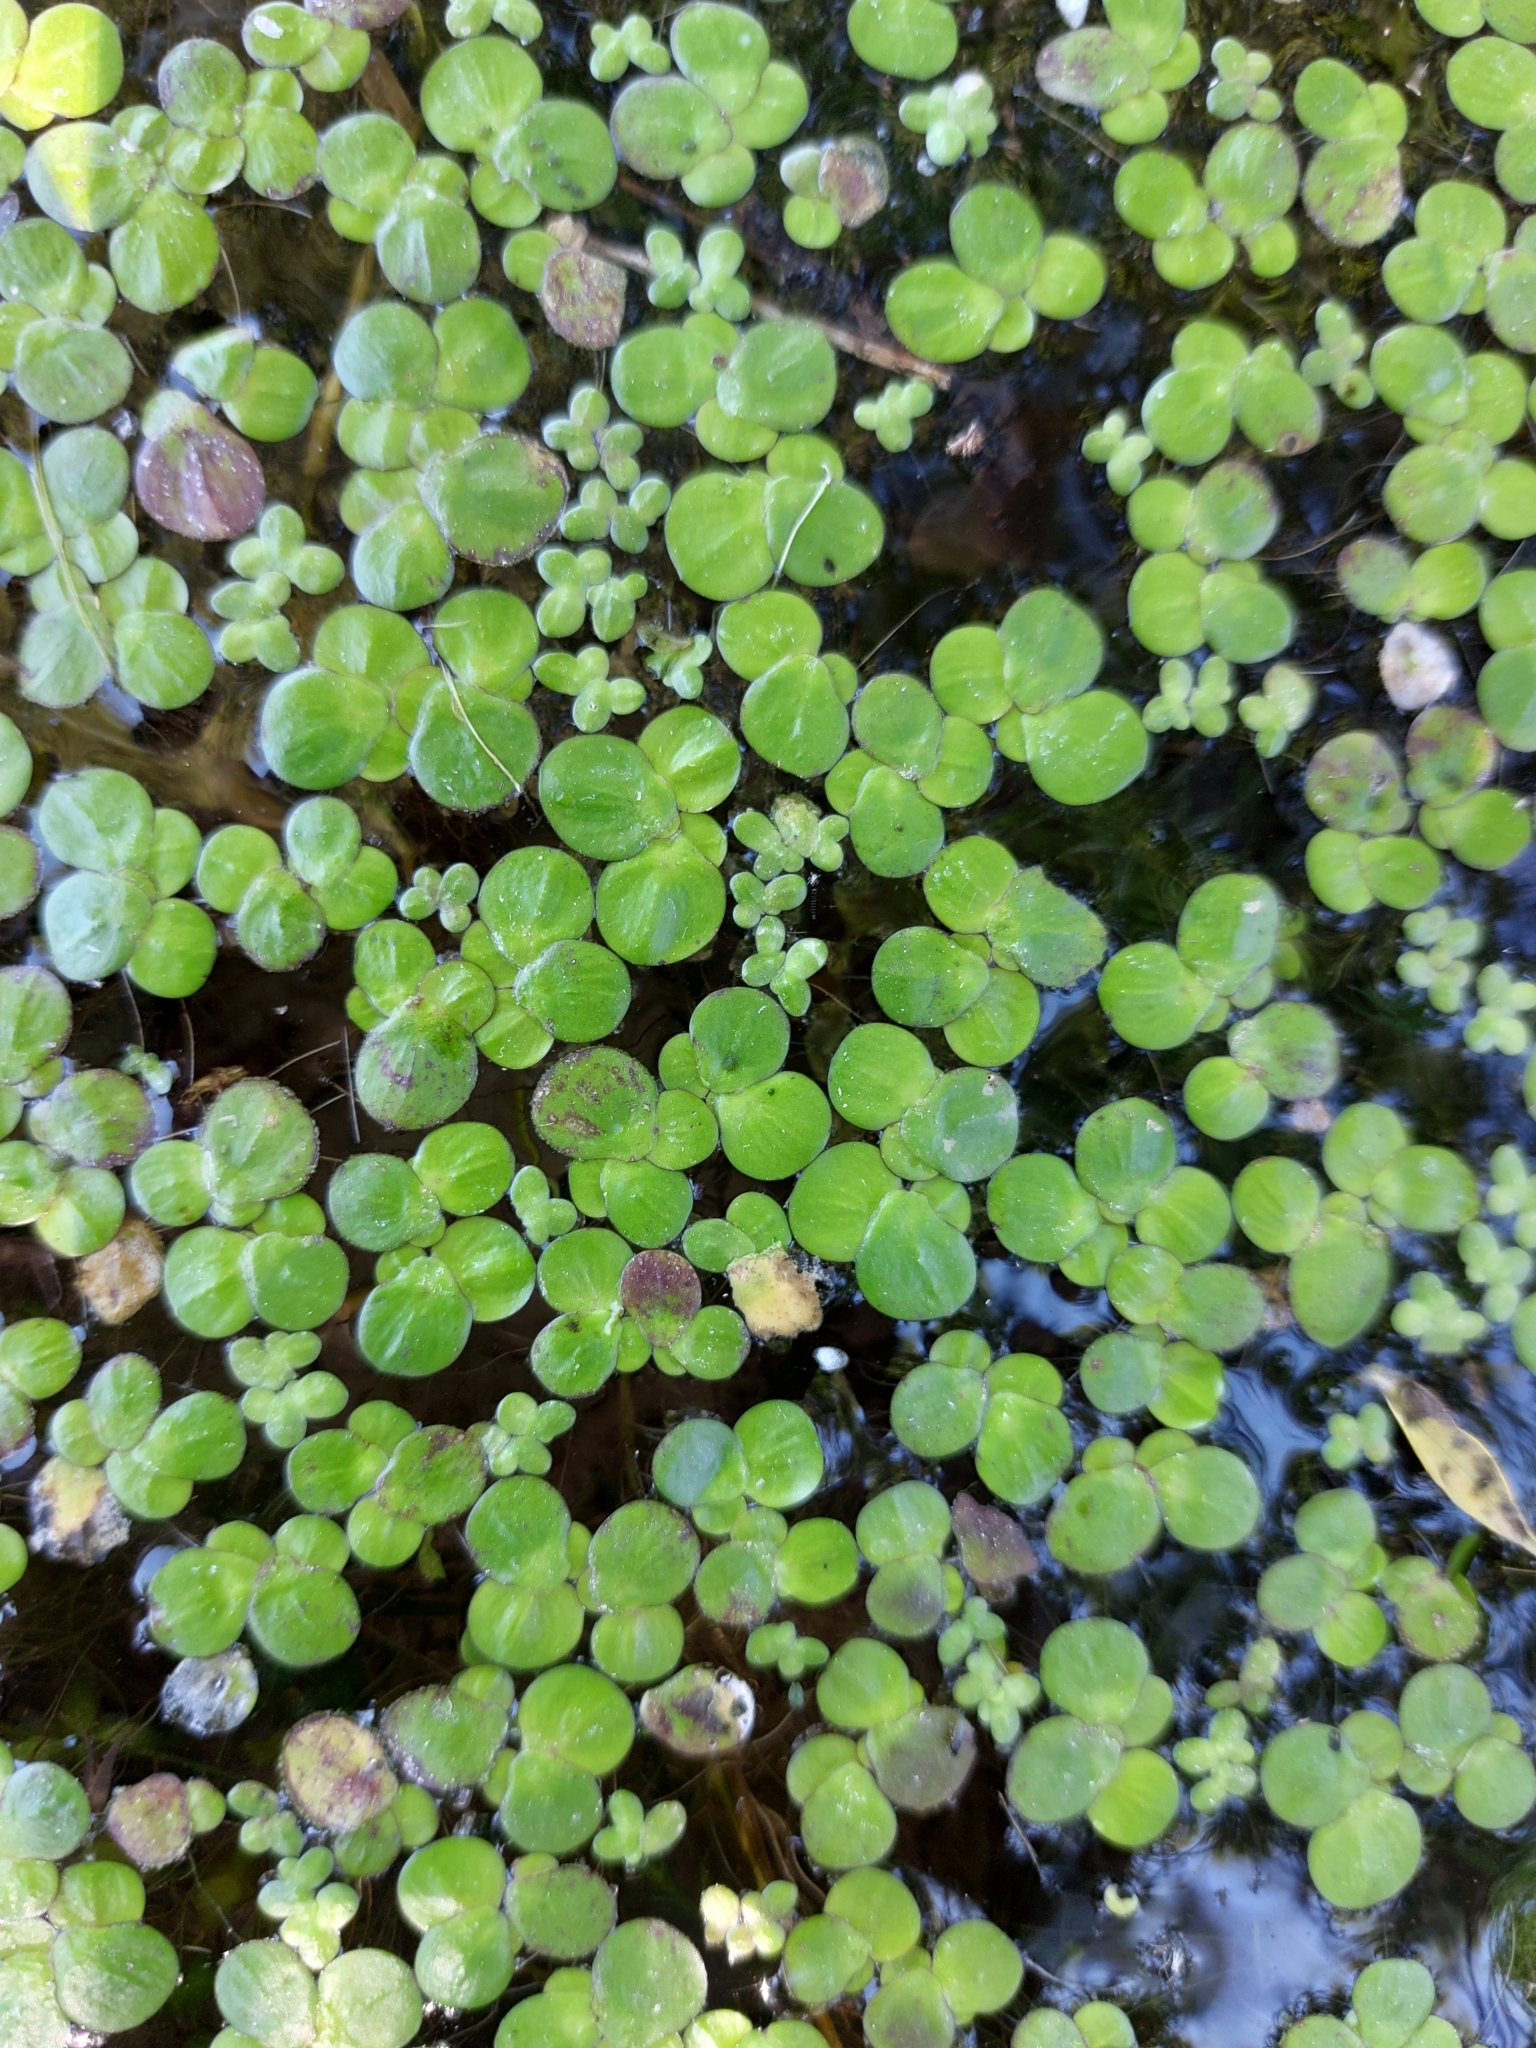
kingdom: Plantae
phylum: Tracheophyta
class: Liliopsida
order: Alismatales
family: Araceae
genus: Spirodela
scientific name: Spirodela polyrhiza
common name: Great duckweed
